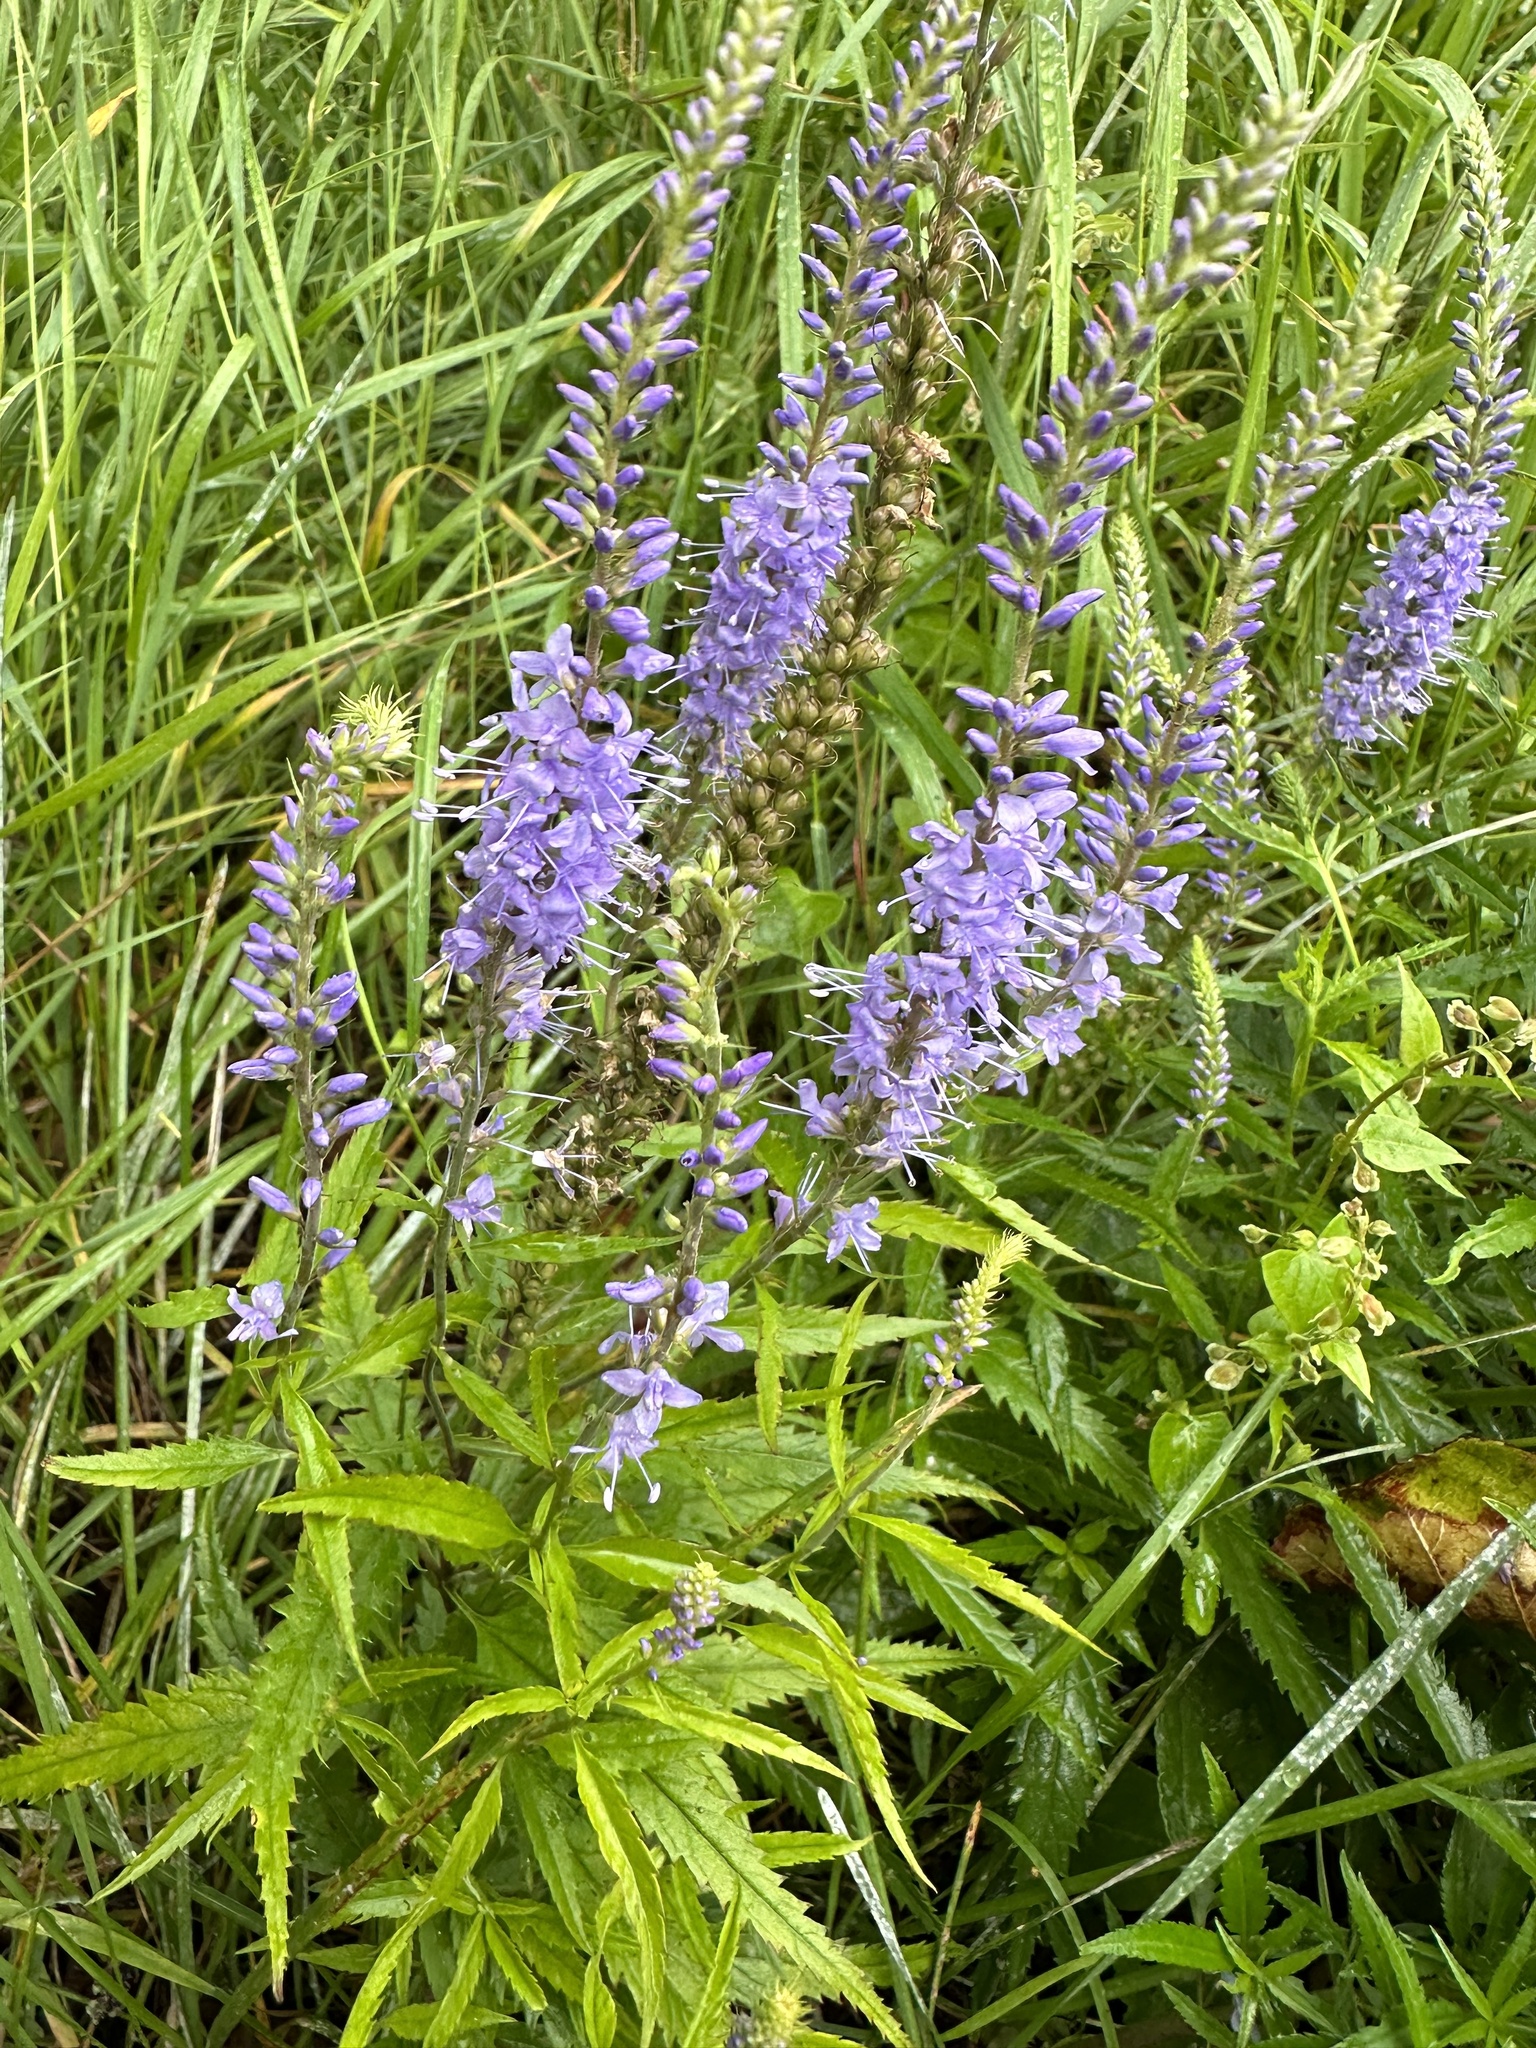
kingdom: Plantae
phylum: Tracheophyta
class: Magnoliopsida
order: Lamiales
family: Plantaginaceae
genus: Veronica
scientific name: Veronica longifolia
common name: Garden speedwell
